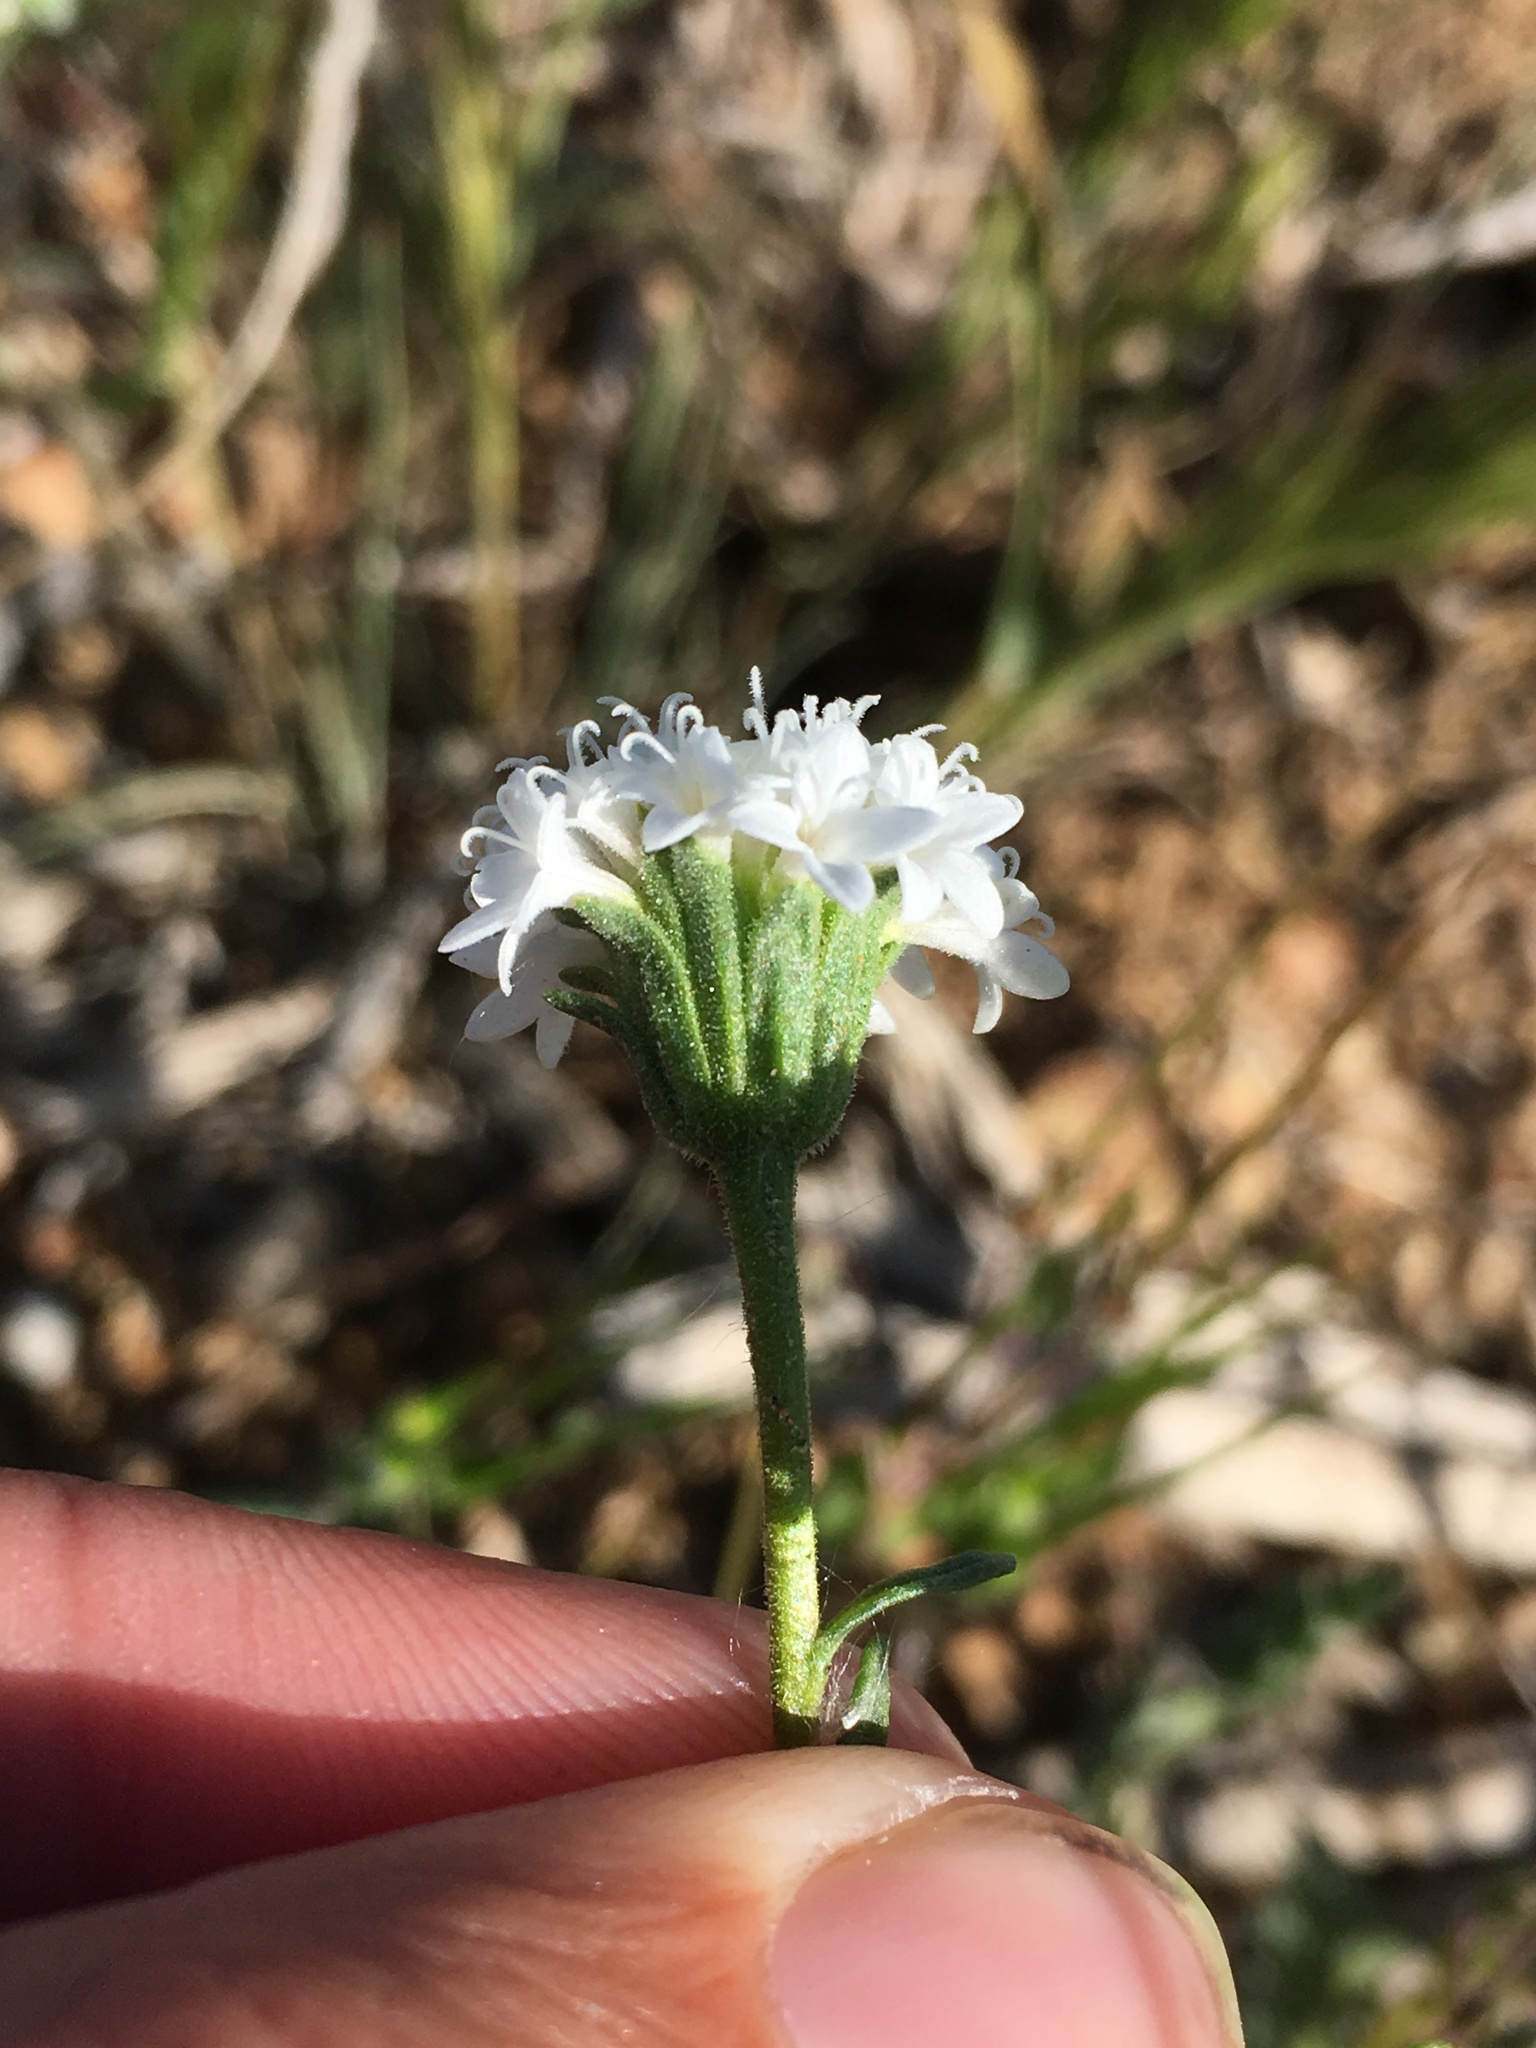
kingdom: Plantae
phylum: Tracheophyta
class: Magnoliopsida
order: Asterales
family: Asteraceae
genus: Chaenactis
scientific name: Chaenactis stevioides
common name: Desert pincushion
